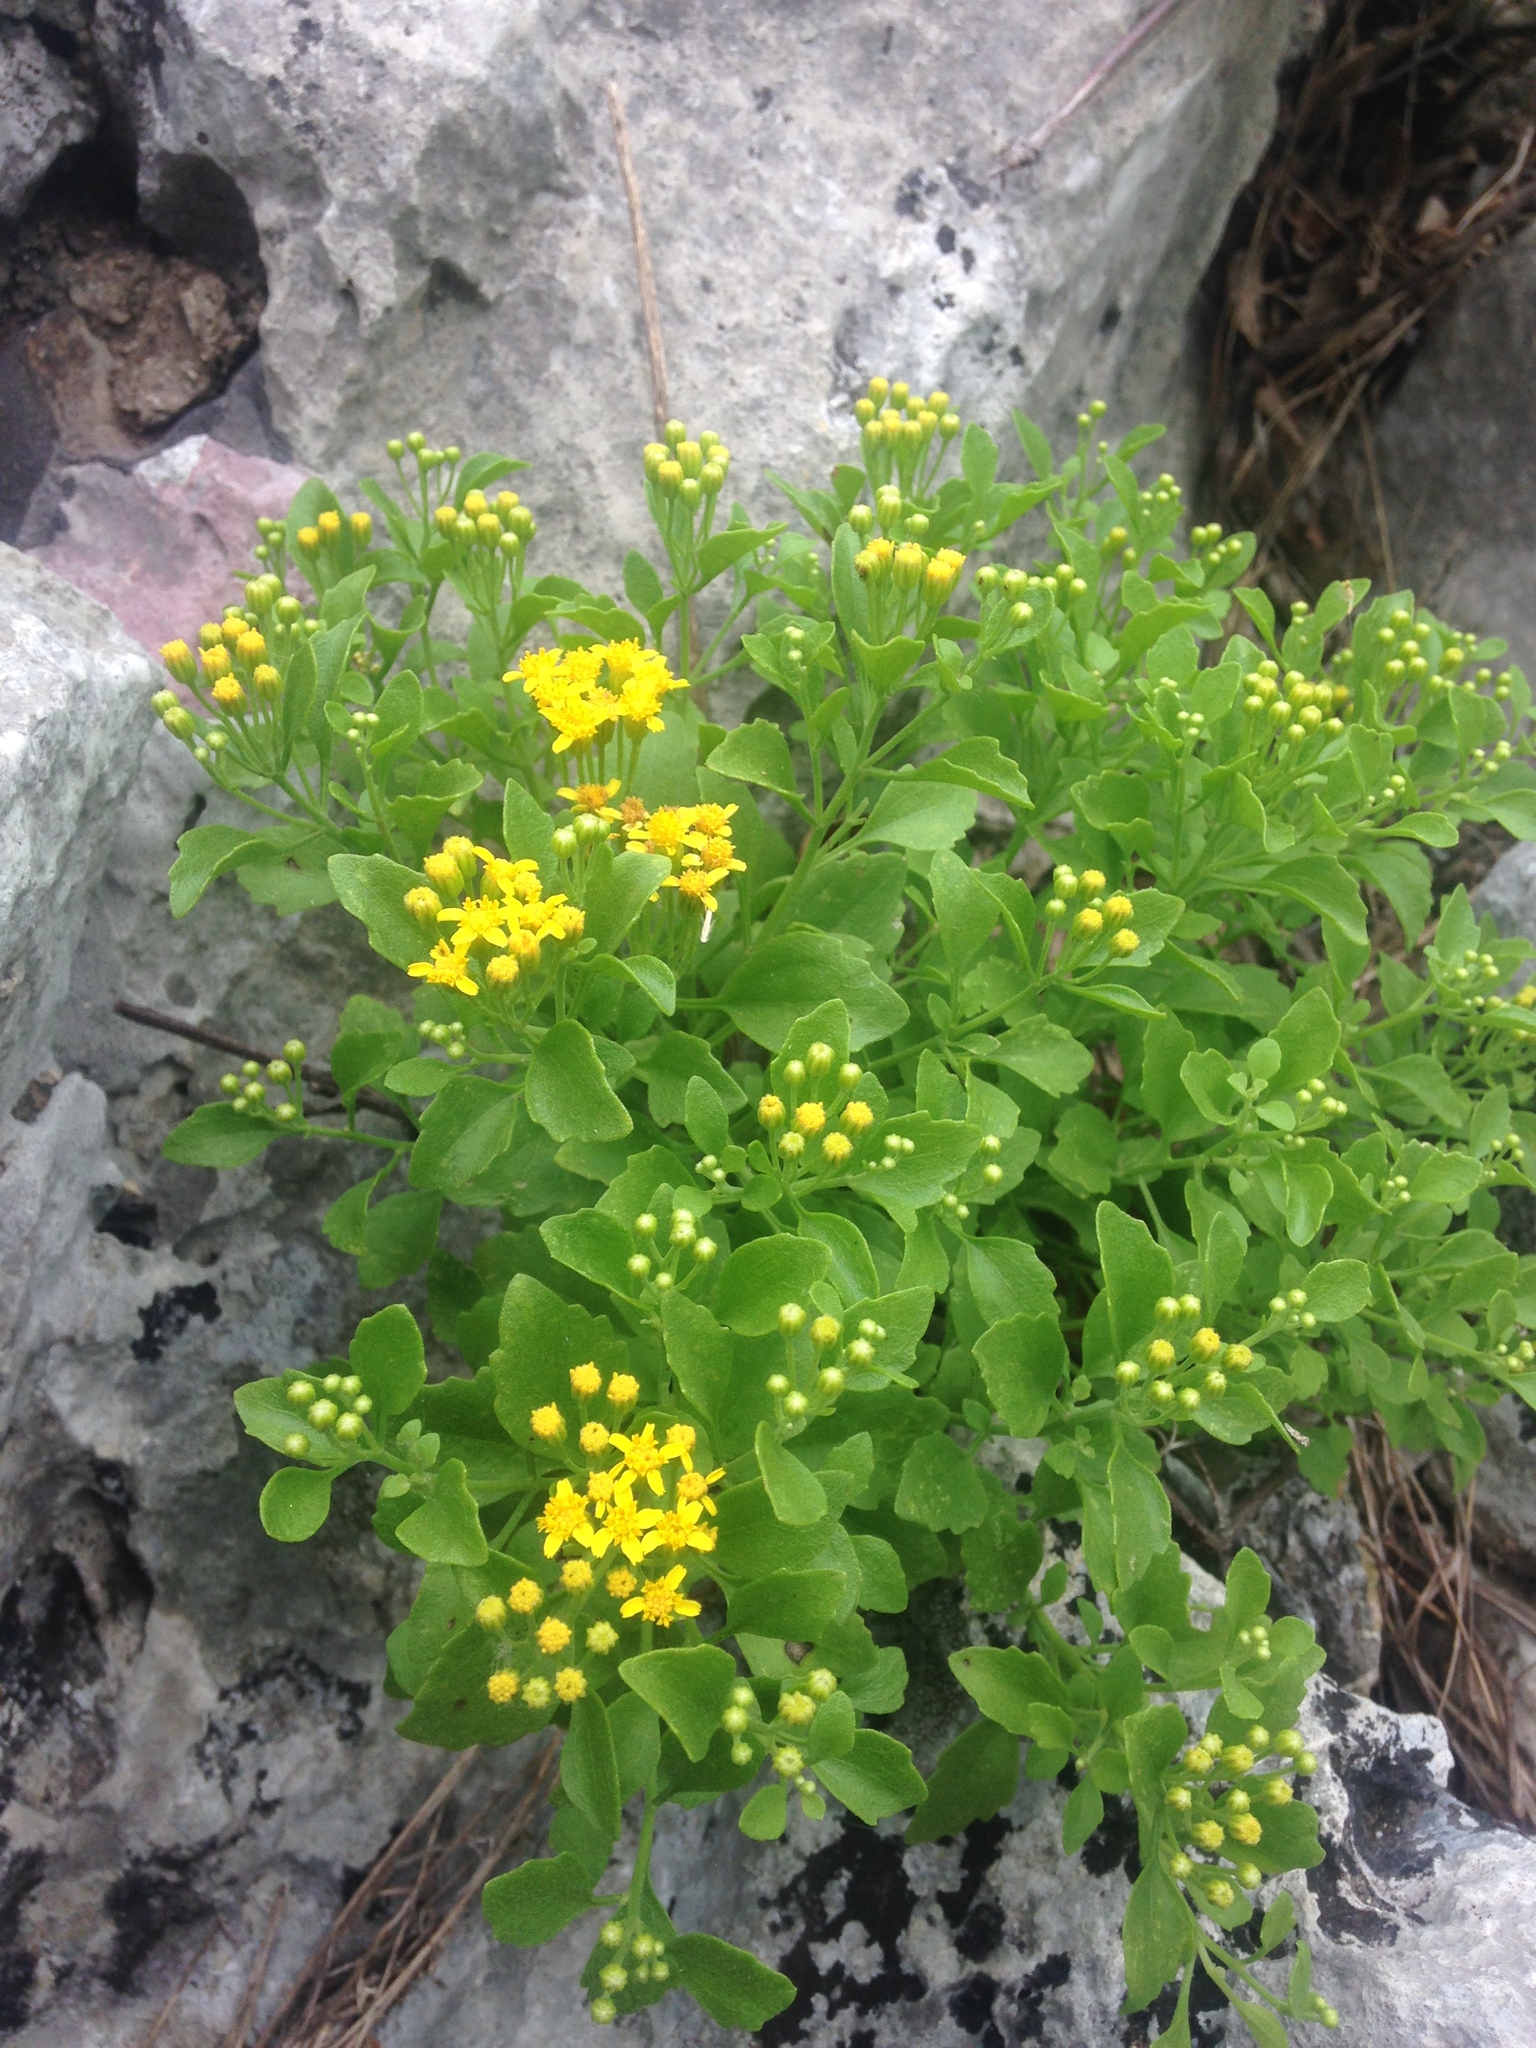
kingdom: Plantae
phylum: Tracheophyta
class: Magnoliopsida
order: Asterales
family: Asteraceae
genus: Laphamia
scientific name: Laphamia lindheimeri
